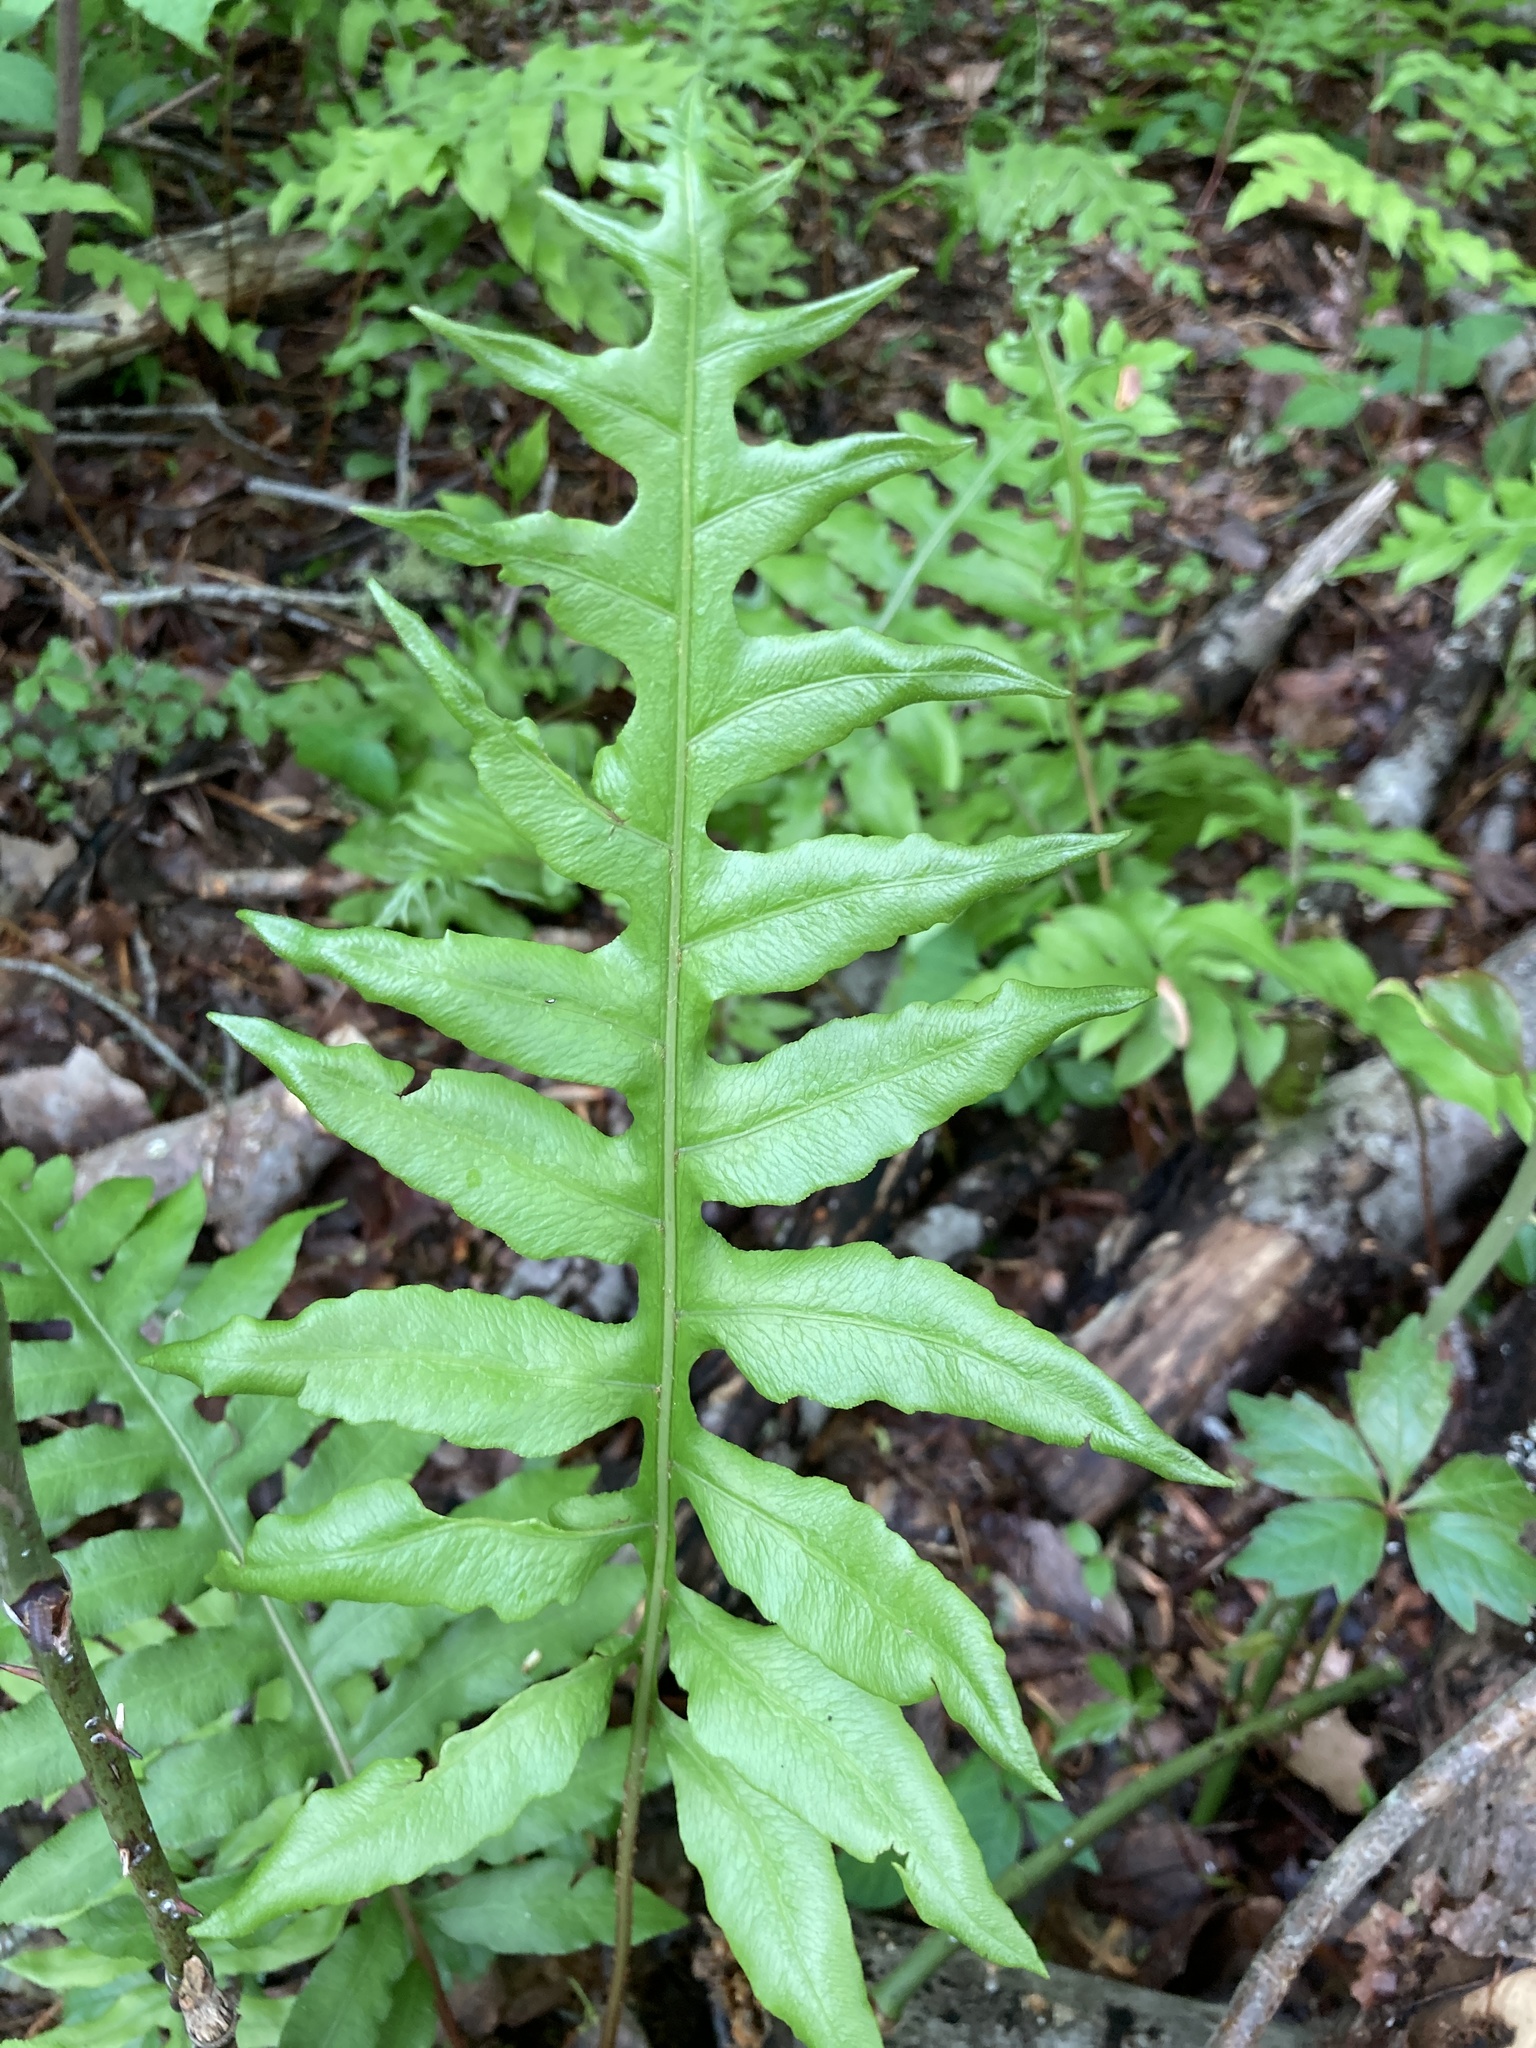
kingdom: Plantae
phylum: Tracheophyta
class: Polypodiopsida
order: Polypodiales
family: Blechnaceae
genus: Lorinseria
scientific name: Lorinseria areolata
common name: Dwarf chain fern
